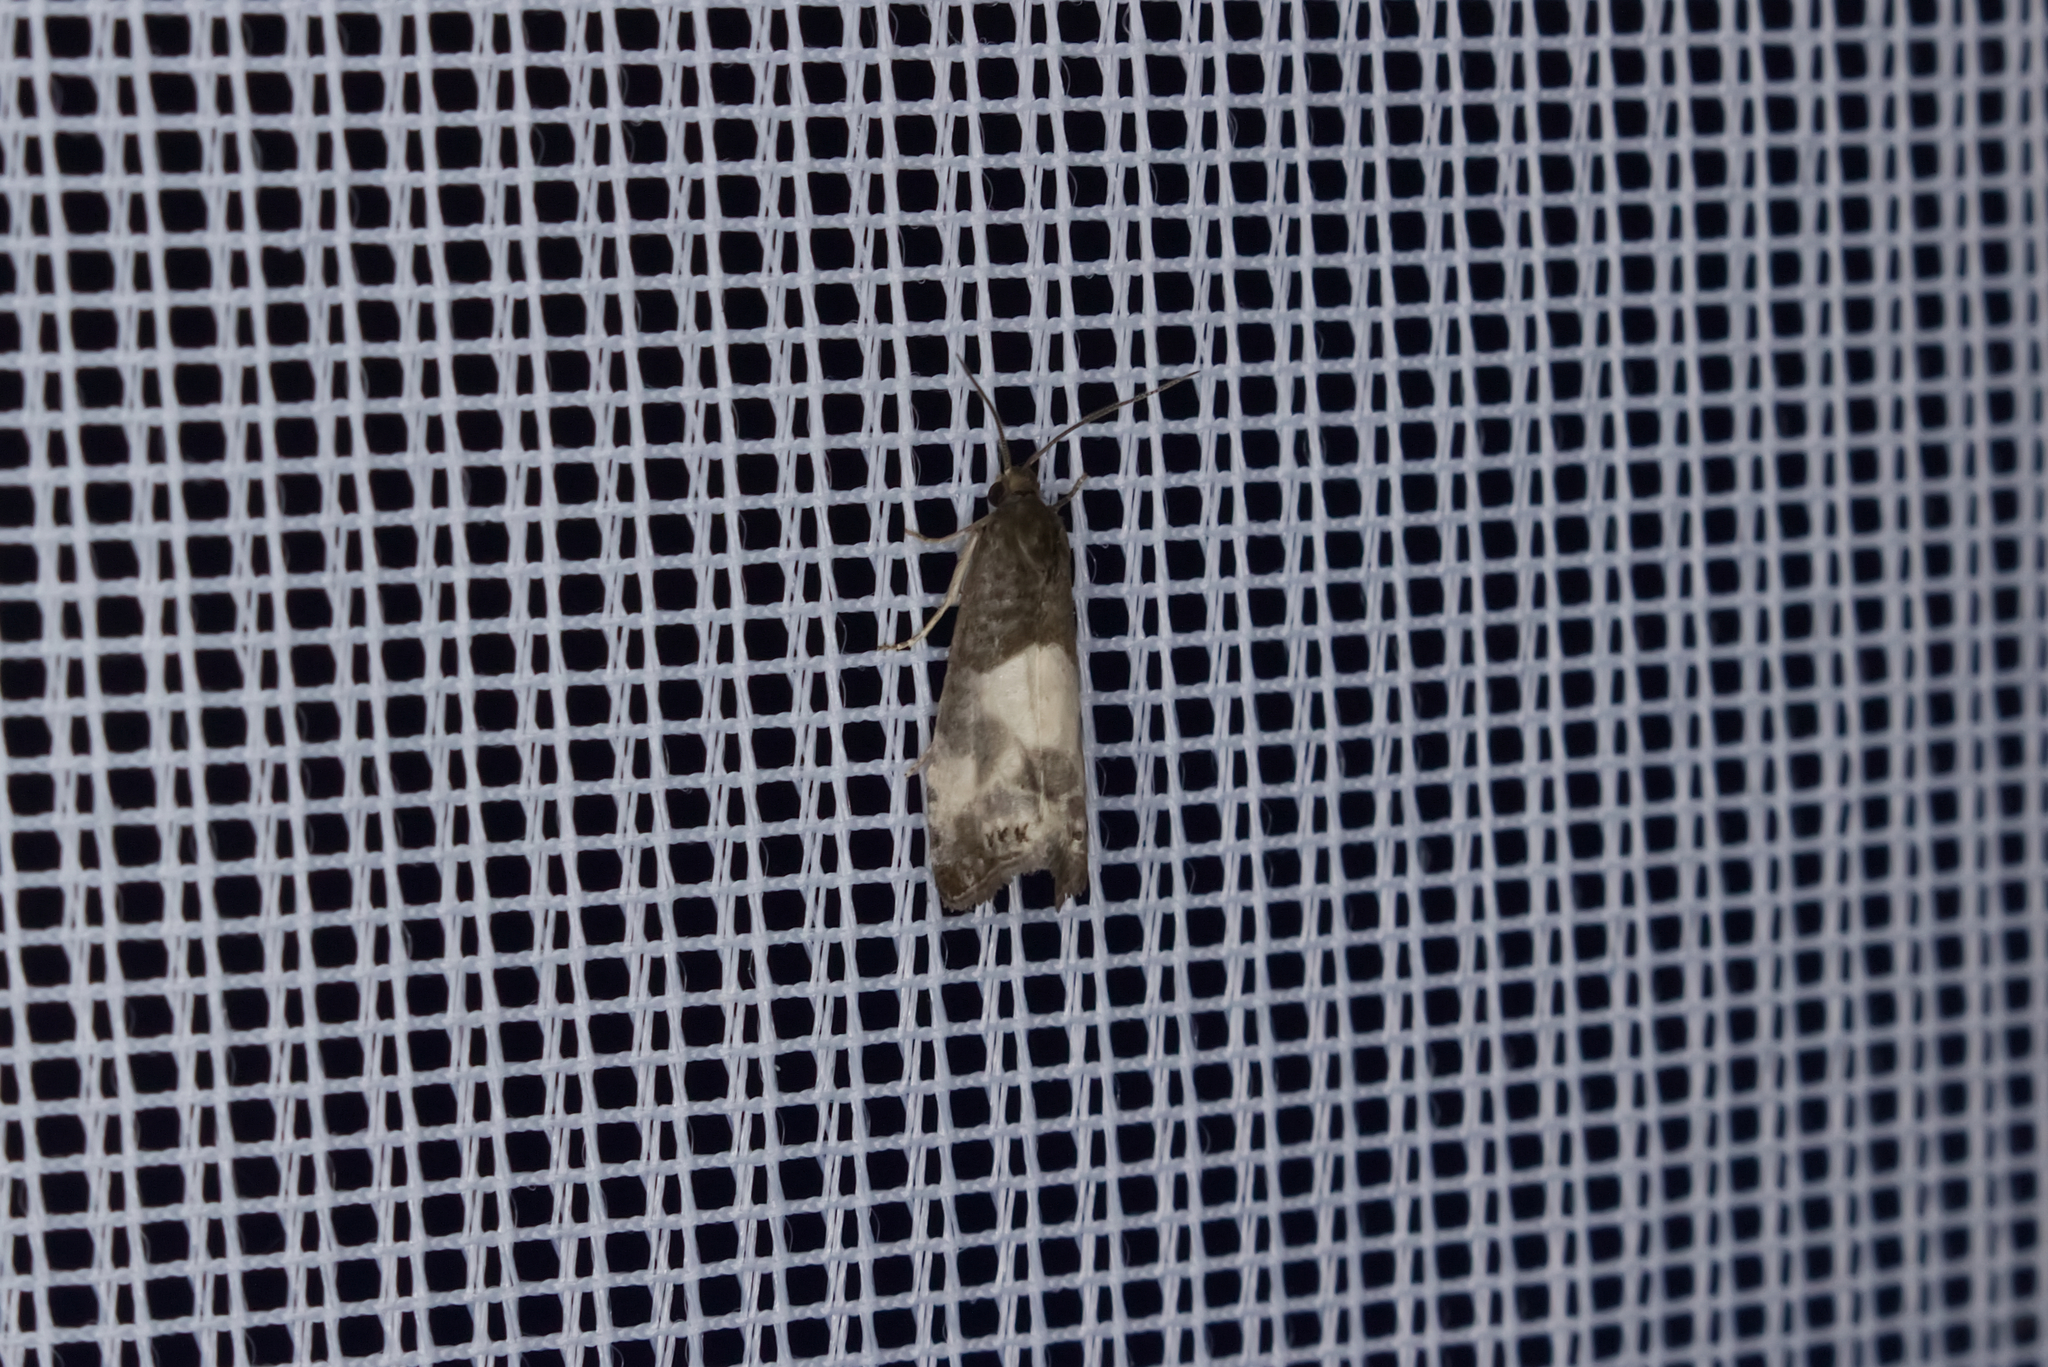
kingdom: Animalia
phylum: Arthropoda
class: Insecta
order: Lepidoptera
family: Tortricidae
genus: Notocelia
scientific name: Notocelia cynosbatella
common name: Yellow-faced bell moth
